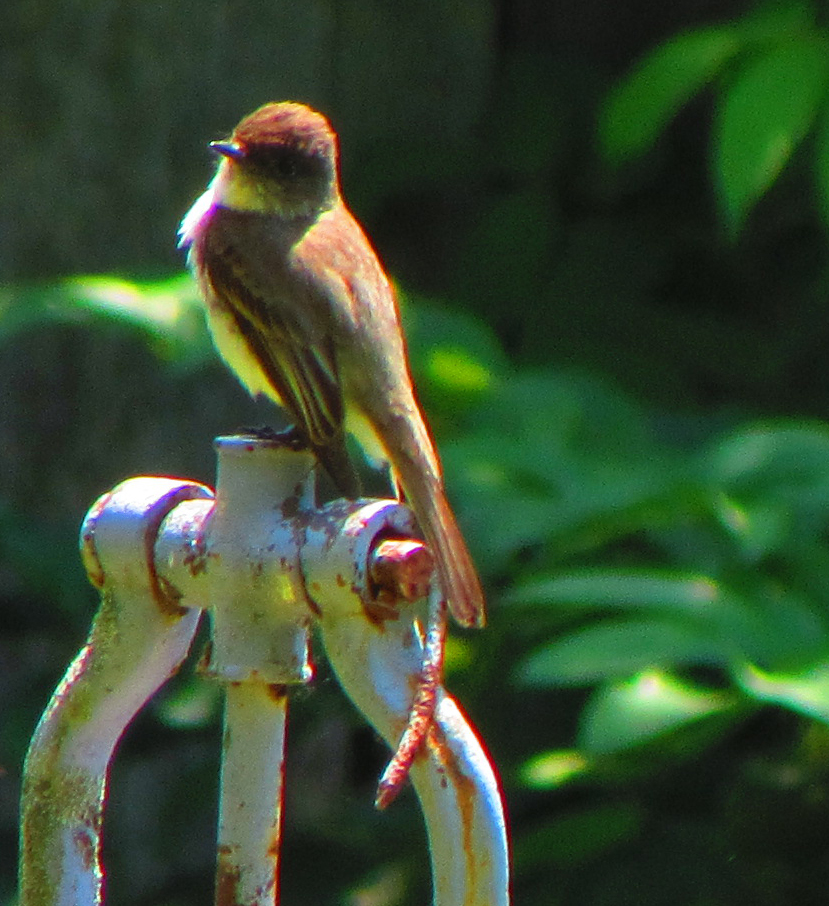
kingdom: Animalia
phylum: Chordata
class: Aves
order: Passeriformes
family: Tyrannidae
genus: Sayornis
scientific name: Sayornis phoebe
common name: Eastern phoebe
